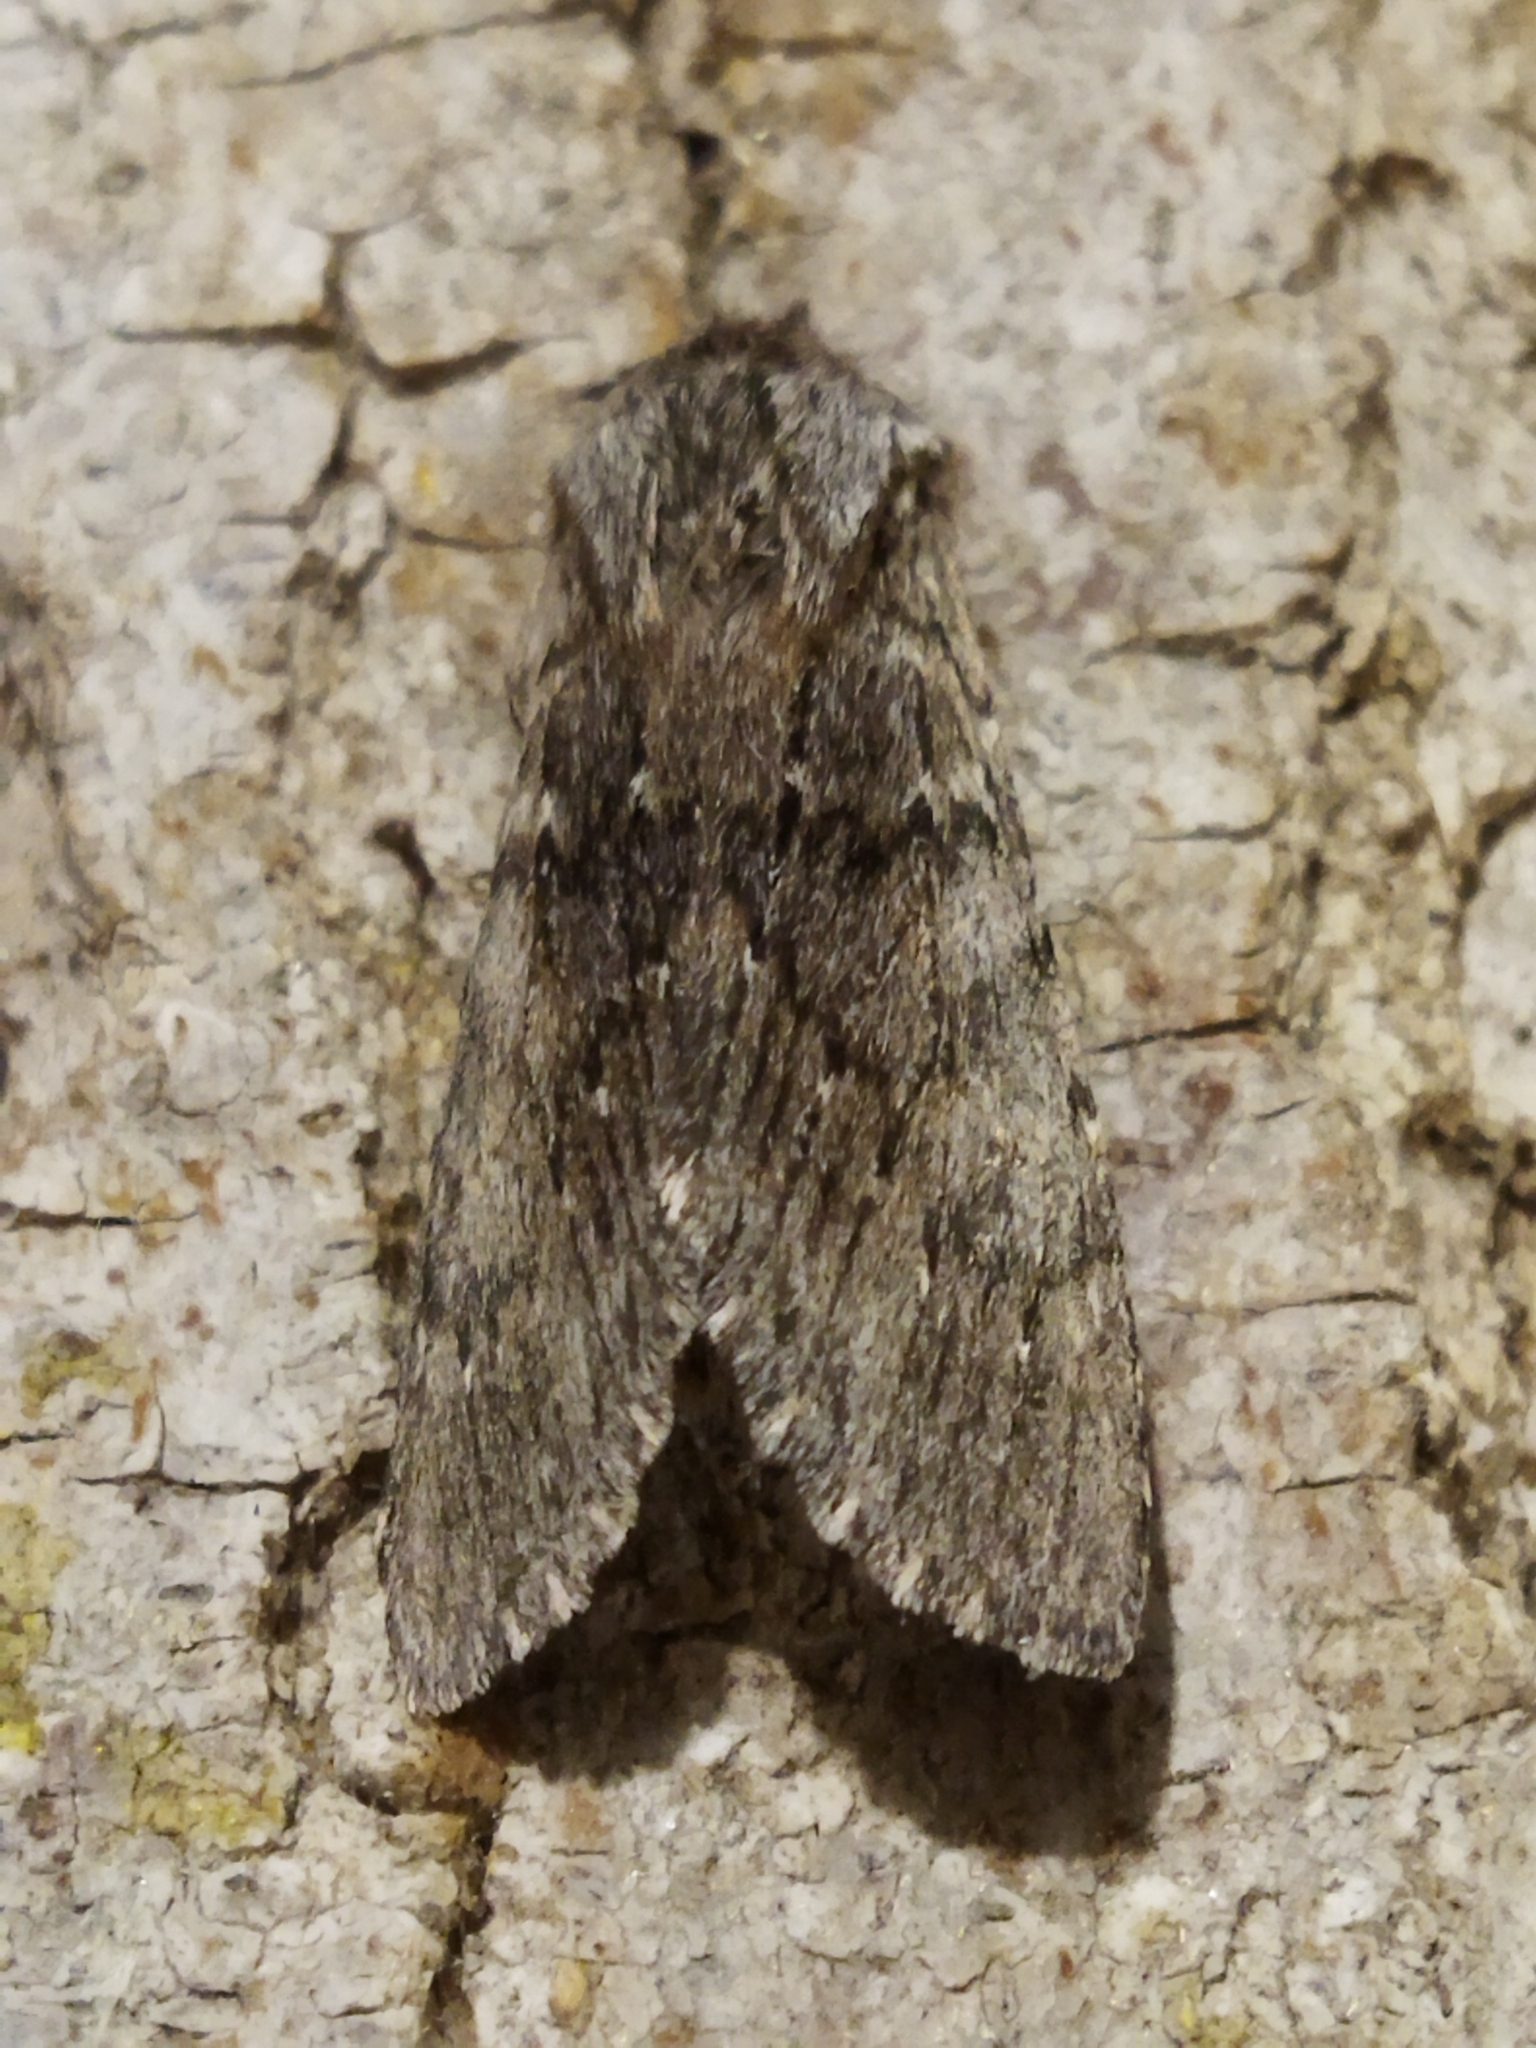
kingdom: Animalia
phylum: Arthropoda
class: Insecta
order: Lepidoptera
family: Notodontidae
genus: Dicranura
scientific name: Dicranura ulmi
